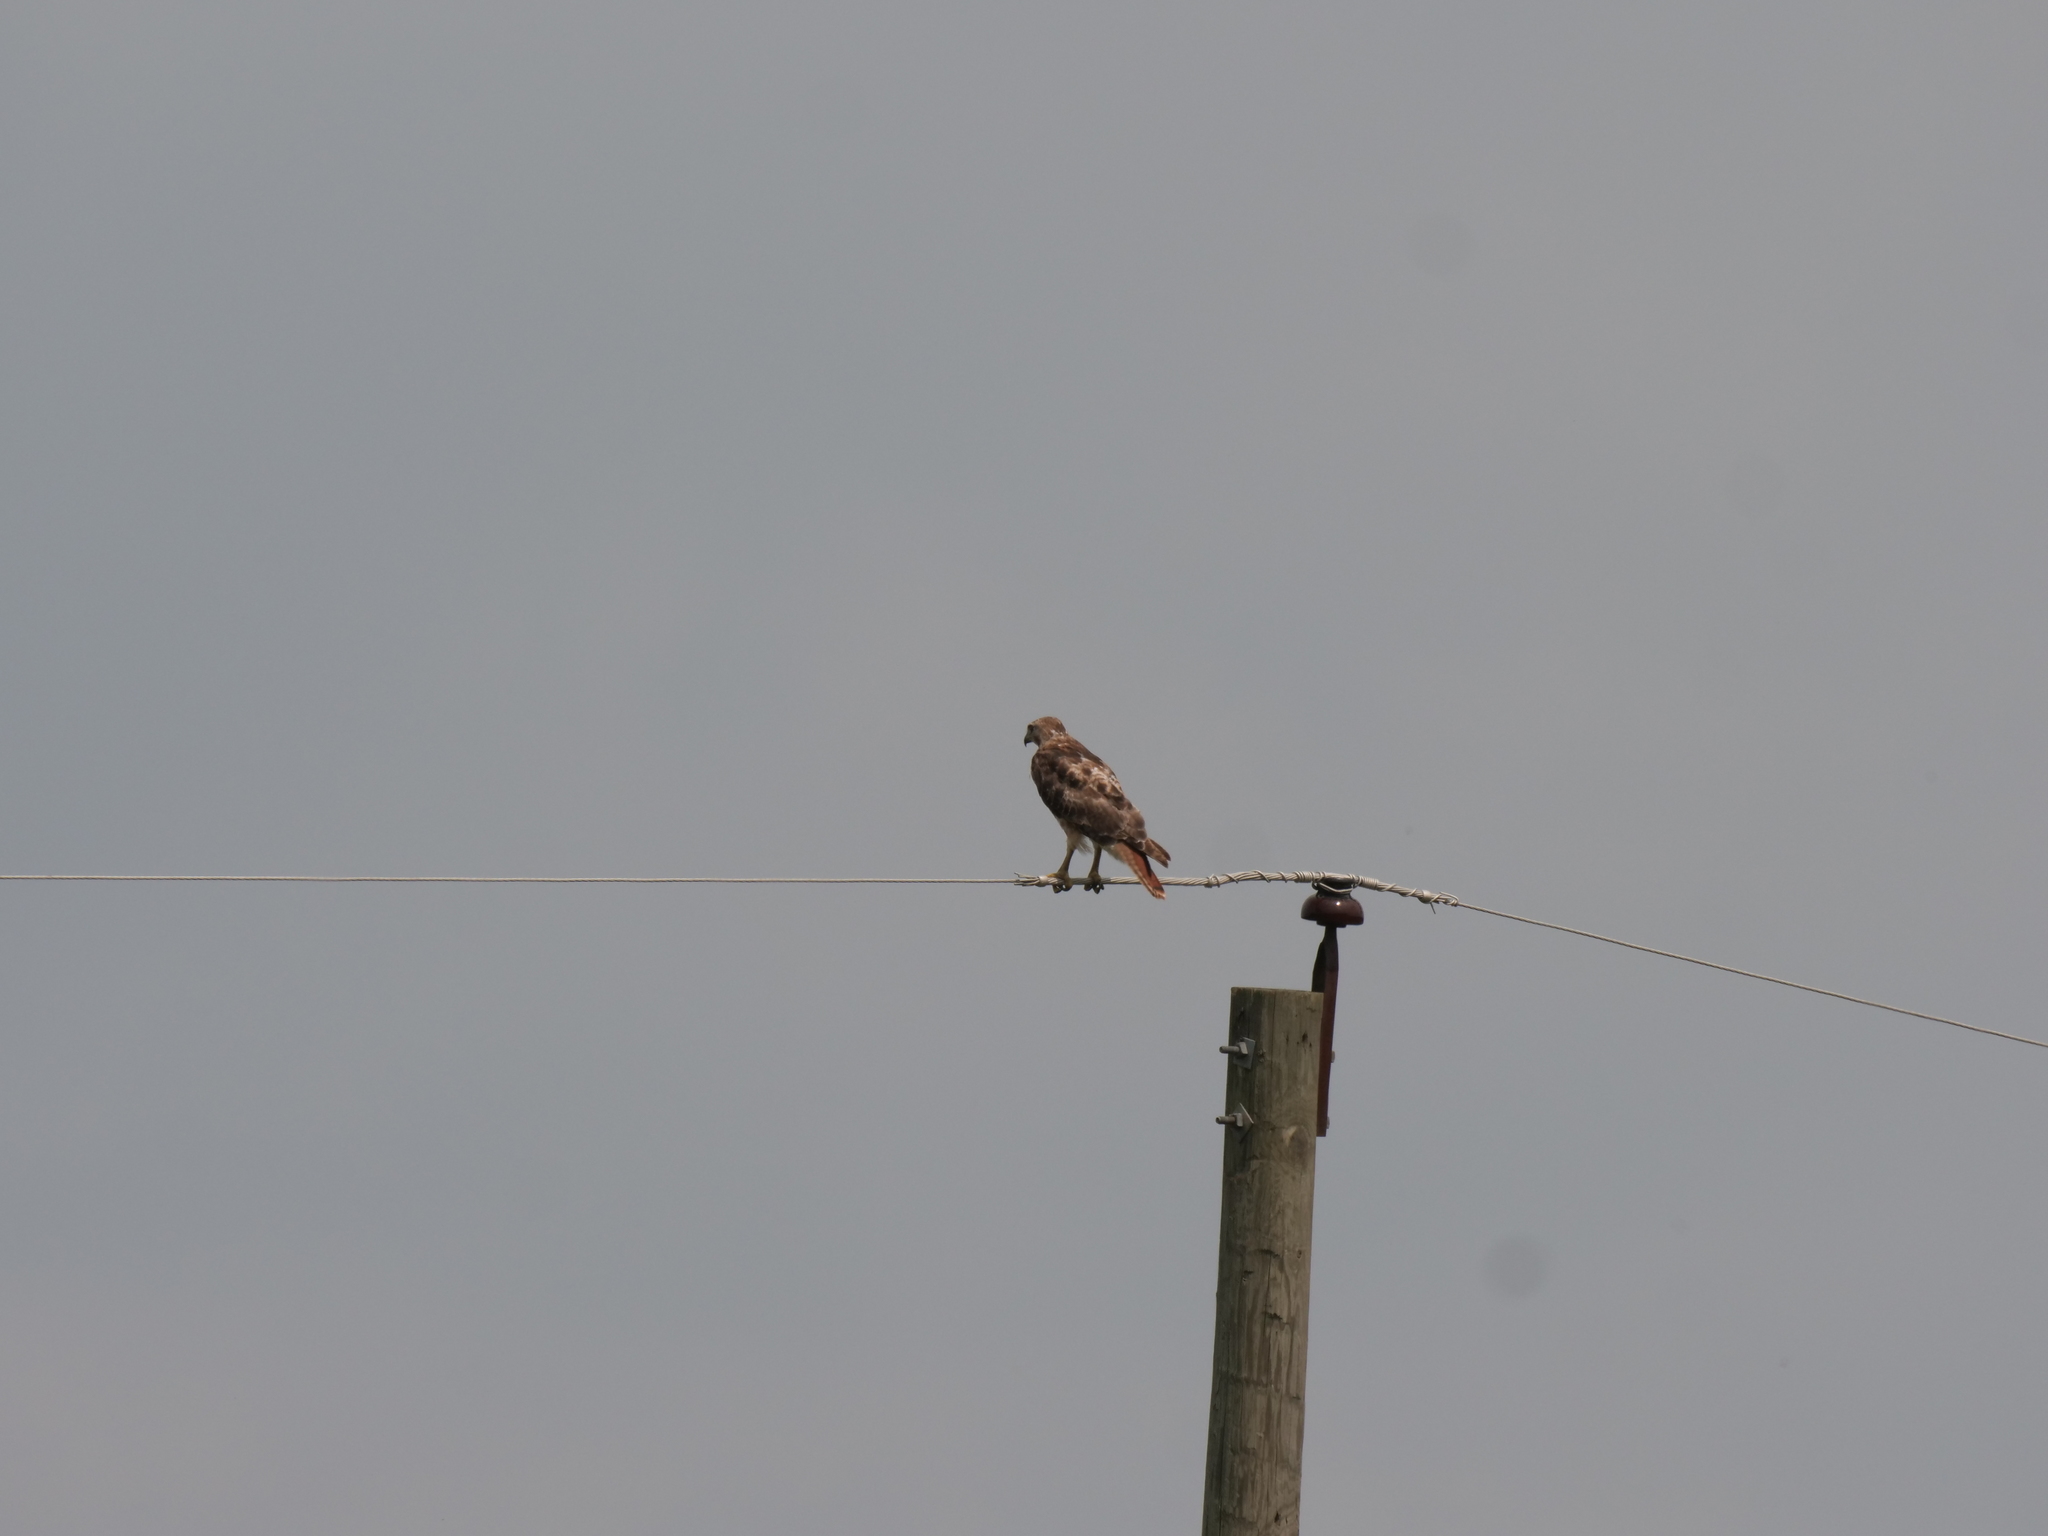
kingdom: Animalia
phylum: Chordata
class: Aves
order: Accipitriformes
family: Accipitridae
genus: Buteo
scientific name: Buteo jamaicensis
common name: Red-tailed hawk
